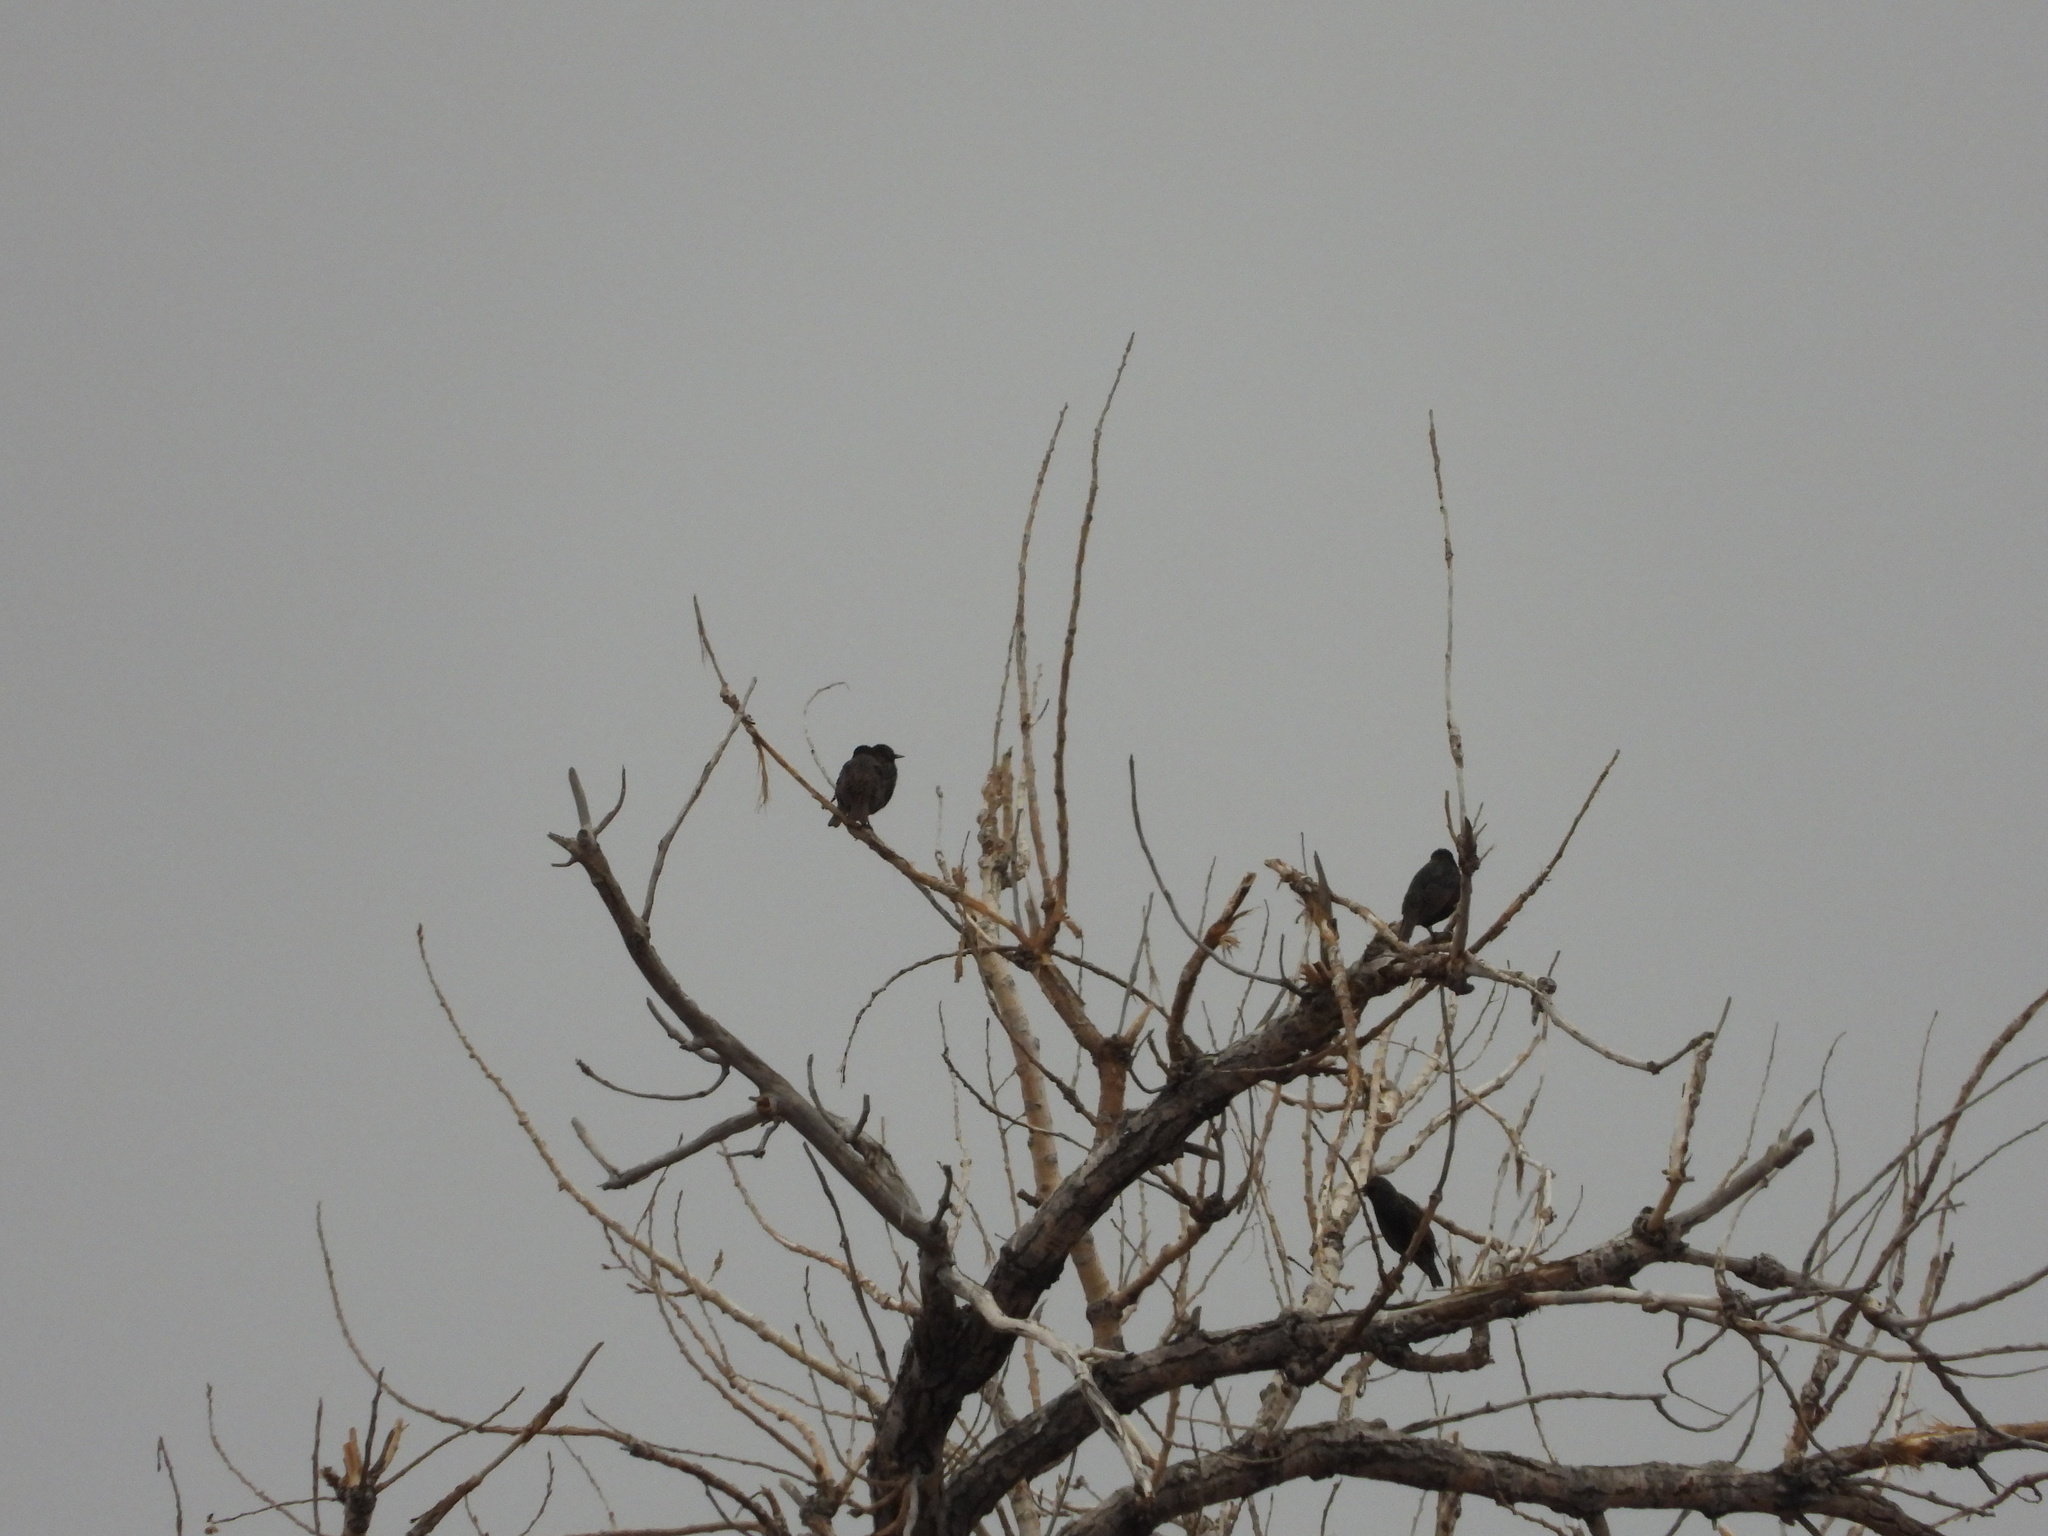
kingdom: Animalia
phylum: Chordata
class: Aves
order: Passeriformes
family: Sturnidae
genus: Sturnus
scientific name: Sturnus vulgaris
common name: Common starling
